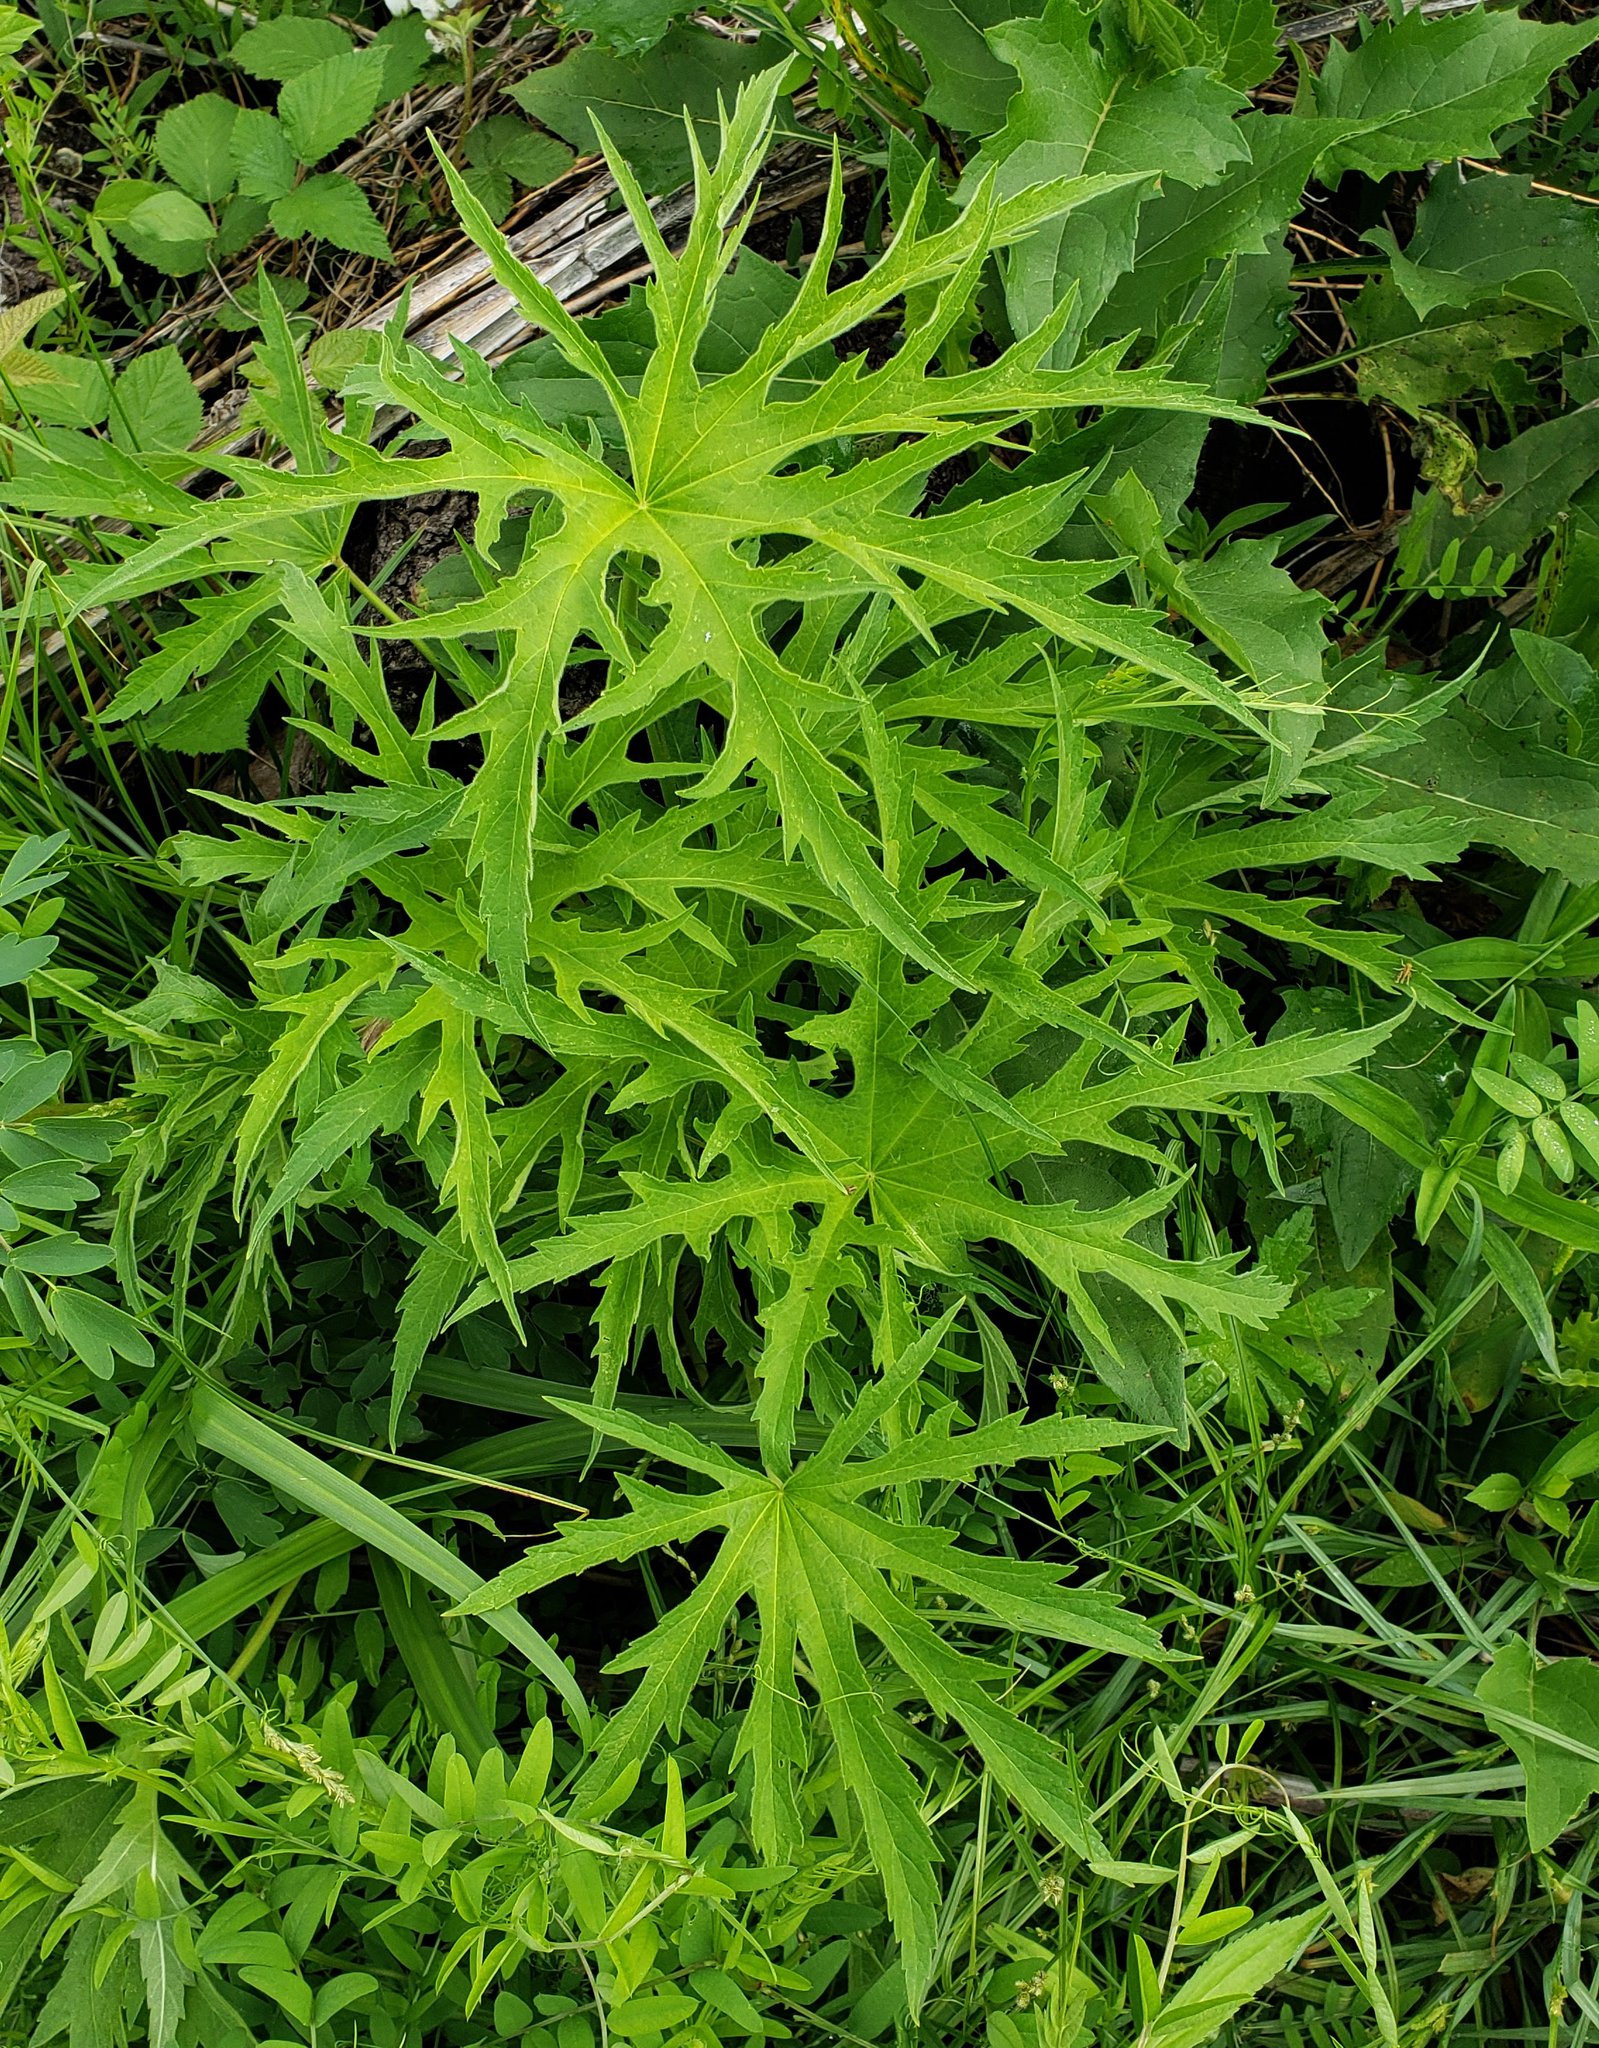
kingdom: Plantae
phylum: Tracheophyta
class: Magnoliopsida
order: Malvales
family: Malvaceae
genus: Napaea
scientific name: Napaea dioica
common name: Glade-mallow
